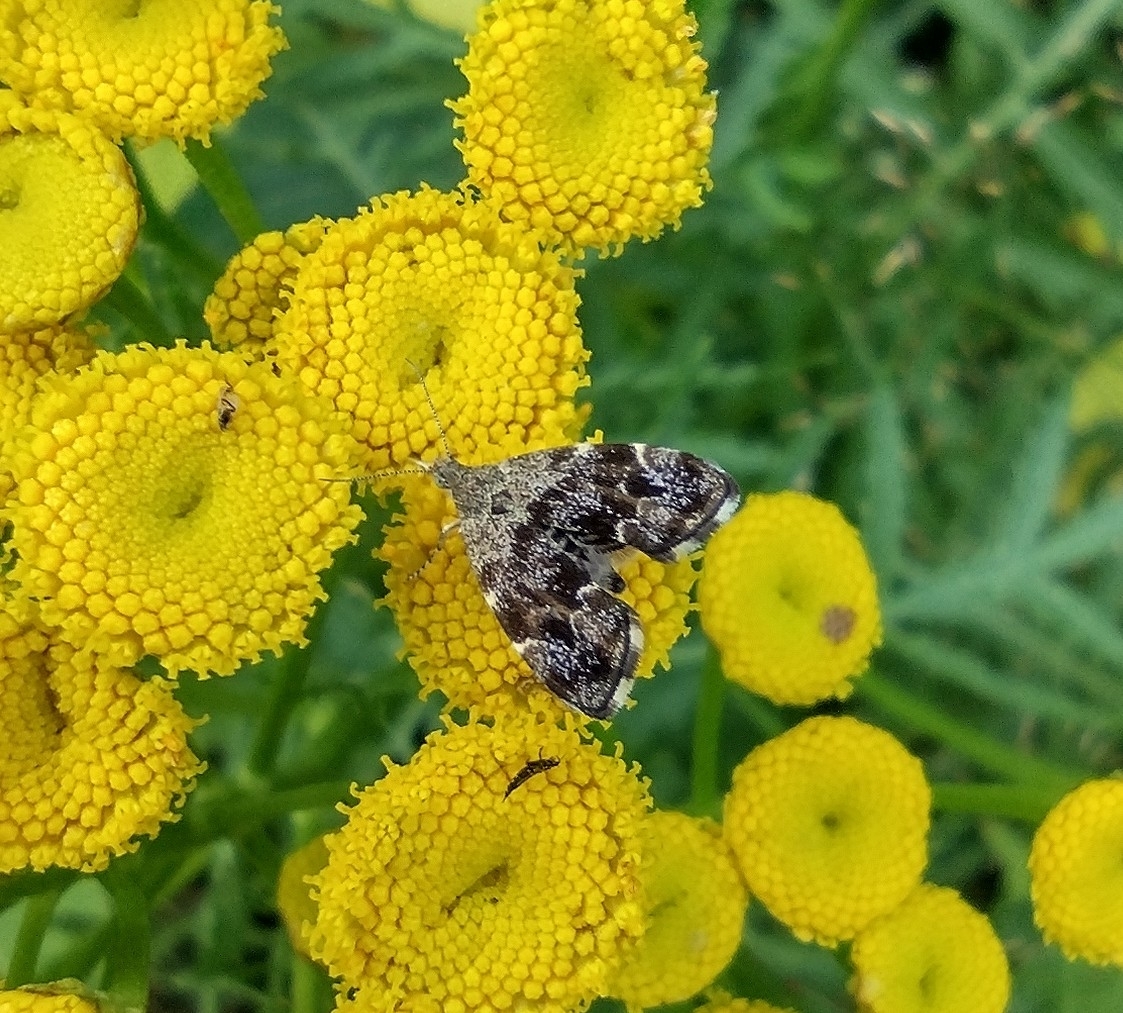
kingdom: Animalia
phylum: Arthropoda
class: Insecta
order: Lepidoptera
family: Choreutidae
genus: Anthophila
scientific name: Anthophila fabriciana
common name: Nettle-tap
